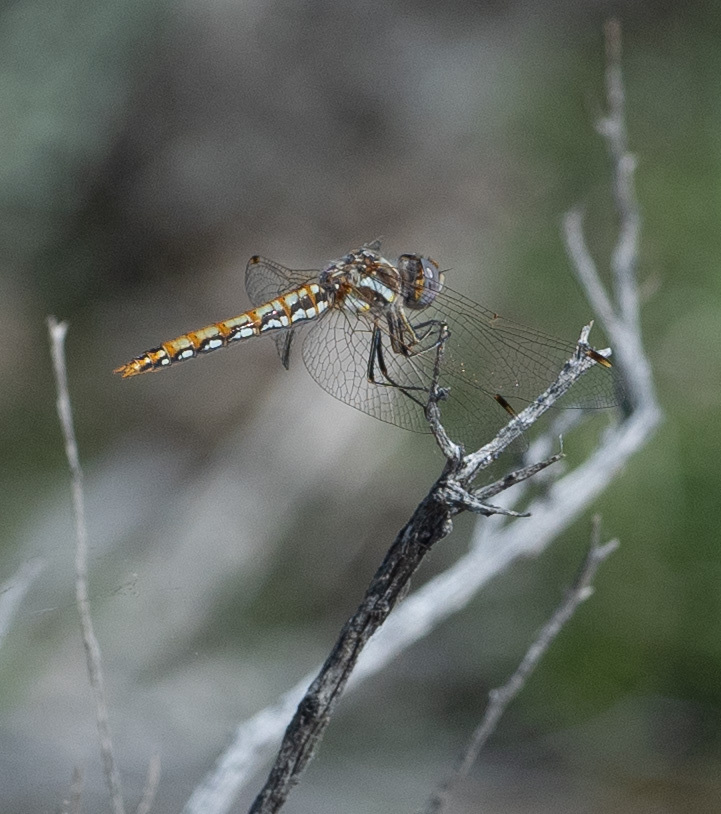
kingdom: Animalia
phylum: Arthropoda
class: Insecta
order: Odonata
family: Libellulidae
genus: Sympetrum
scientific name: Sympetrum corruptum
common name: Variegated meadowhawk
